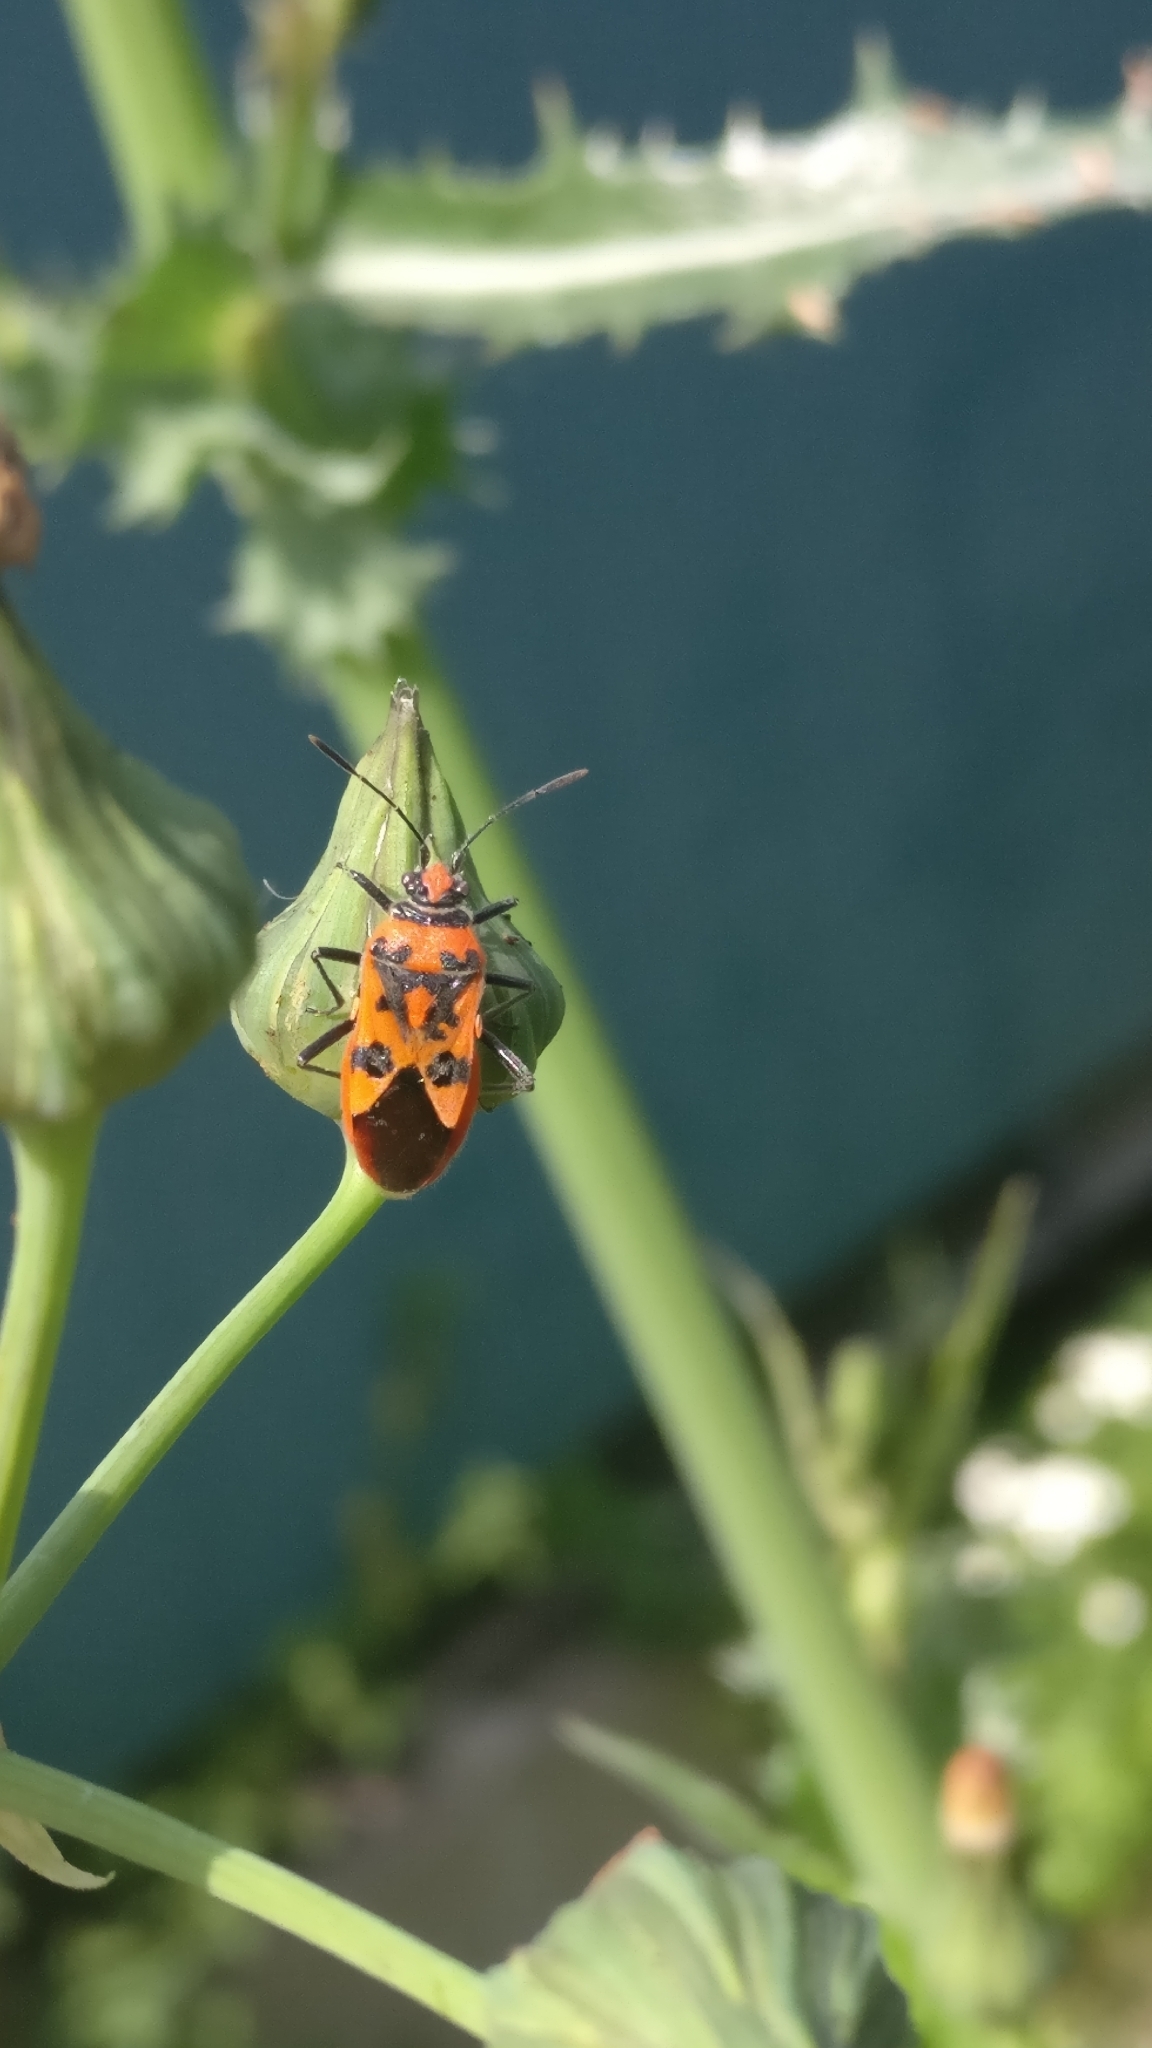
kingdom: Animalia
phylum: Arthropoda
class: Insecta
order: Hemiptera
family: Rhopalidae
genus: Corizus
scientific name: Corizus hyoscyami
